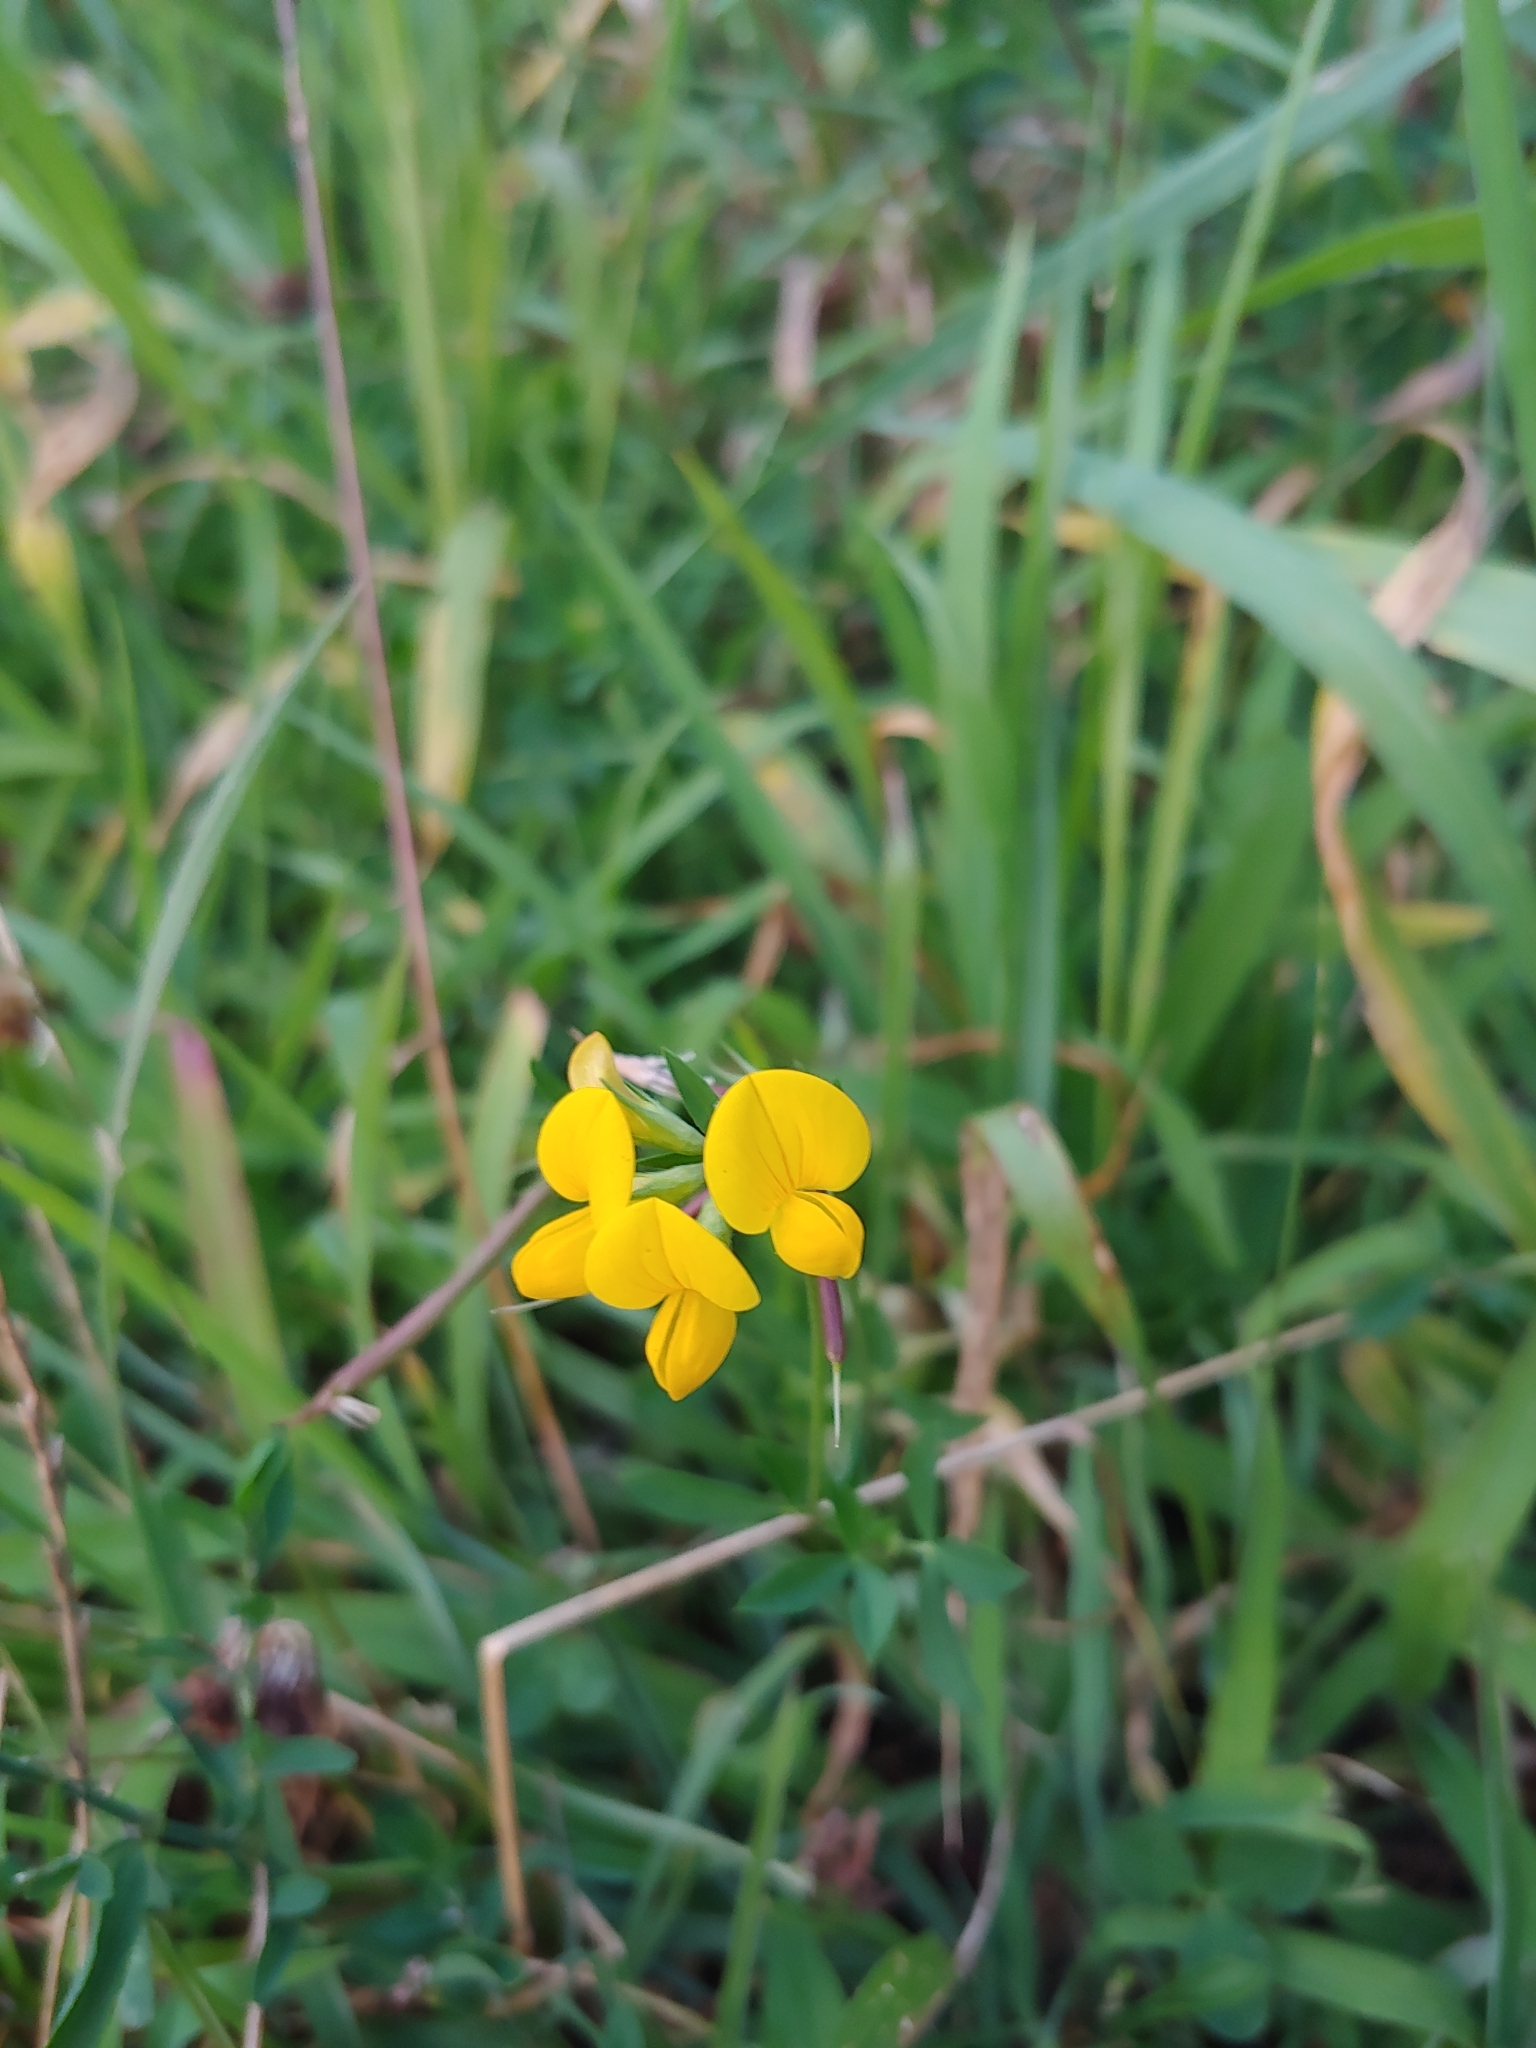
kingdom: Plantae
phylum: Tracheophyta
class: Magnoliopsida
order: Fabales
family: Fabaceae
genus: Lotus
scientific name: Lotus corniculatus
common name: Common bird's-foot-trefoil
